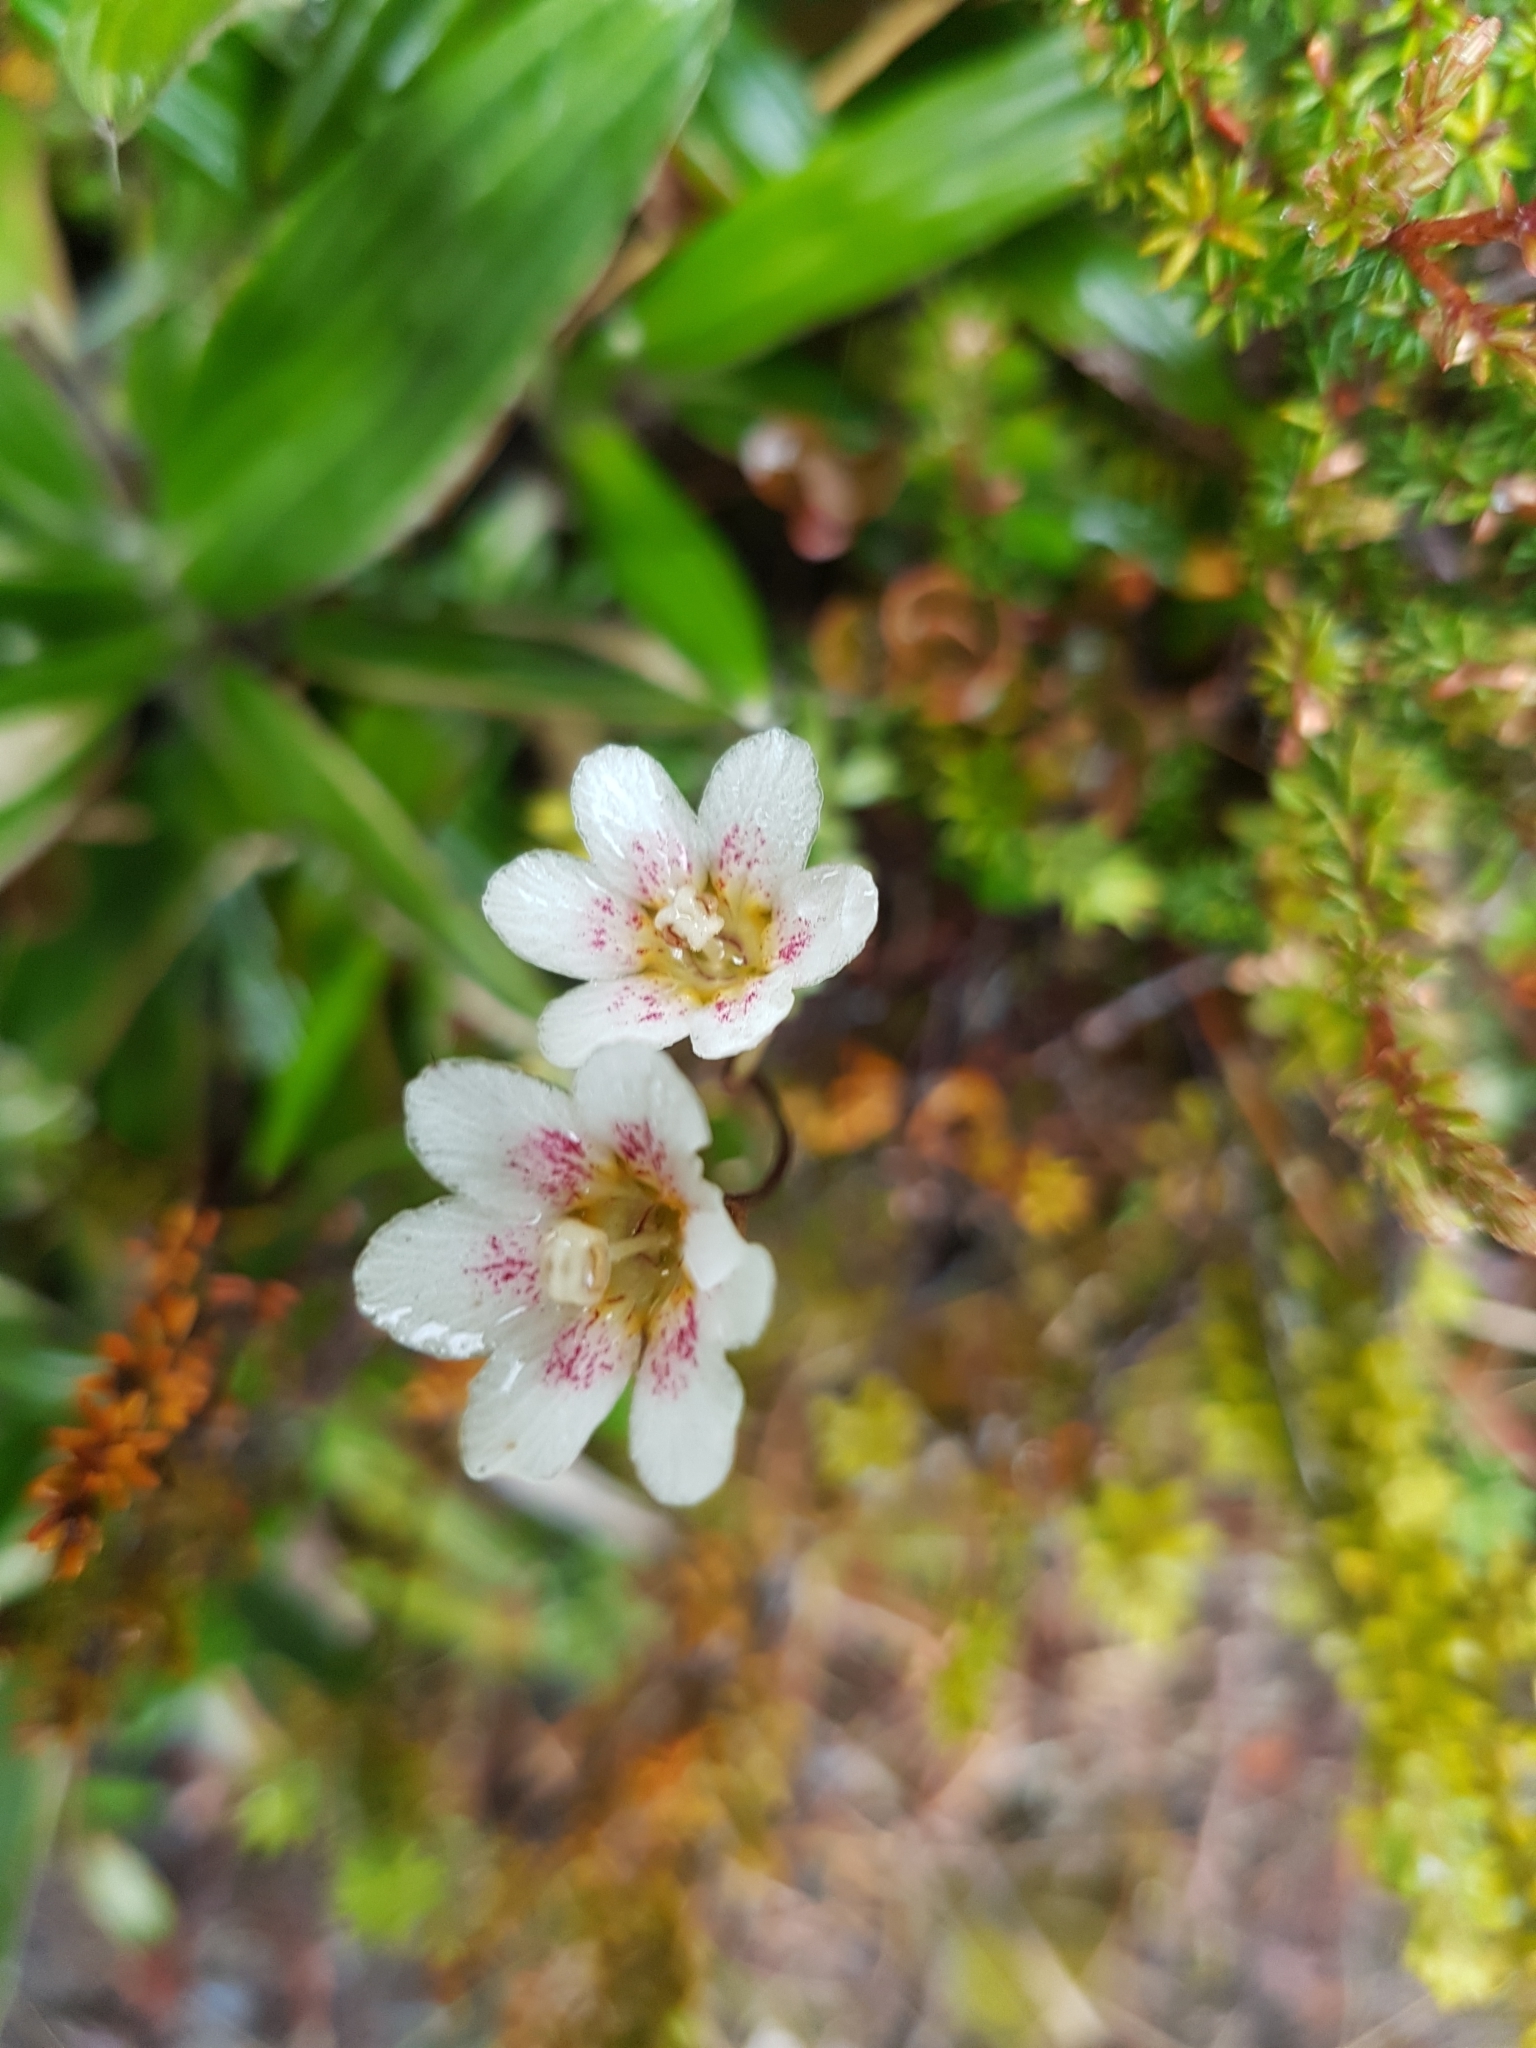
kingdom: Plantae
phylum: Tracheophyta
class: Magnoliopsida
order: Asterales
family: Stylidiaceae
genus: Forstera
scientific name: Forstera tenella
